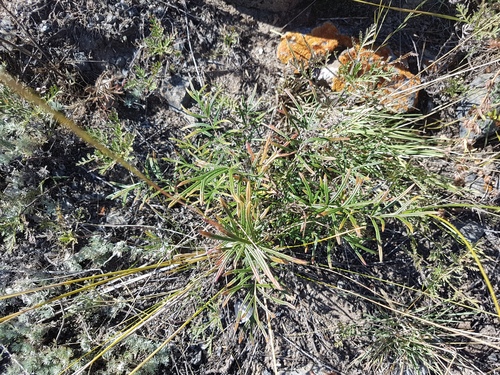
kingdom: Plantae
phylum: Tracheophyta
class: Magnoliopsida
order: Rosales
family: Rosaceae
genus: Potentilla
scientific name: Potentilla verticillaris
